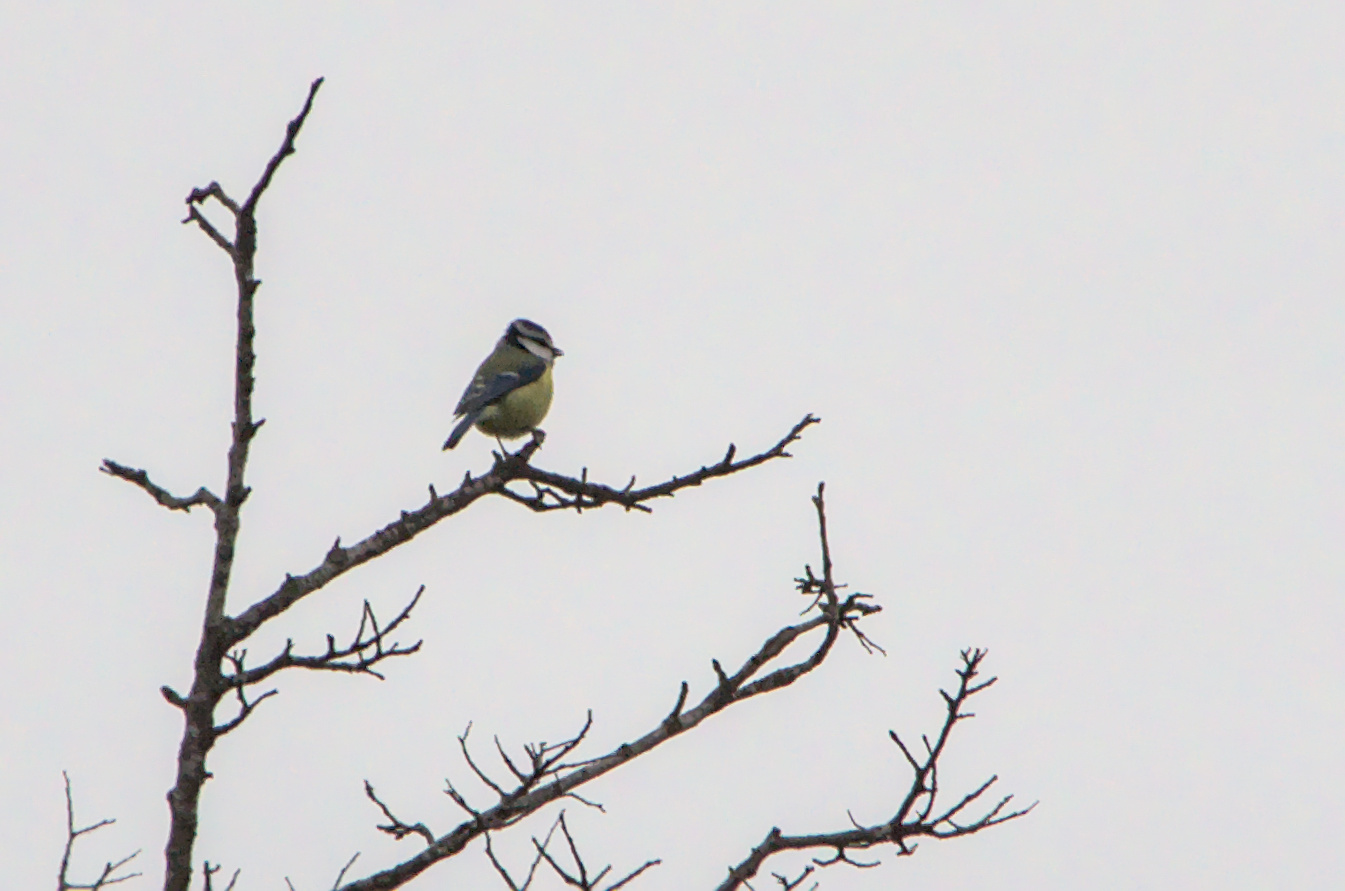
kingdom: Animalia
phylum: Chordata
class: Aves
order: Passeriformes
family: Paridae
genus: Cyanistes
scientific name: Cyanistes caeruleus
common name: Eurasian blue tit
